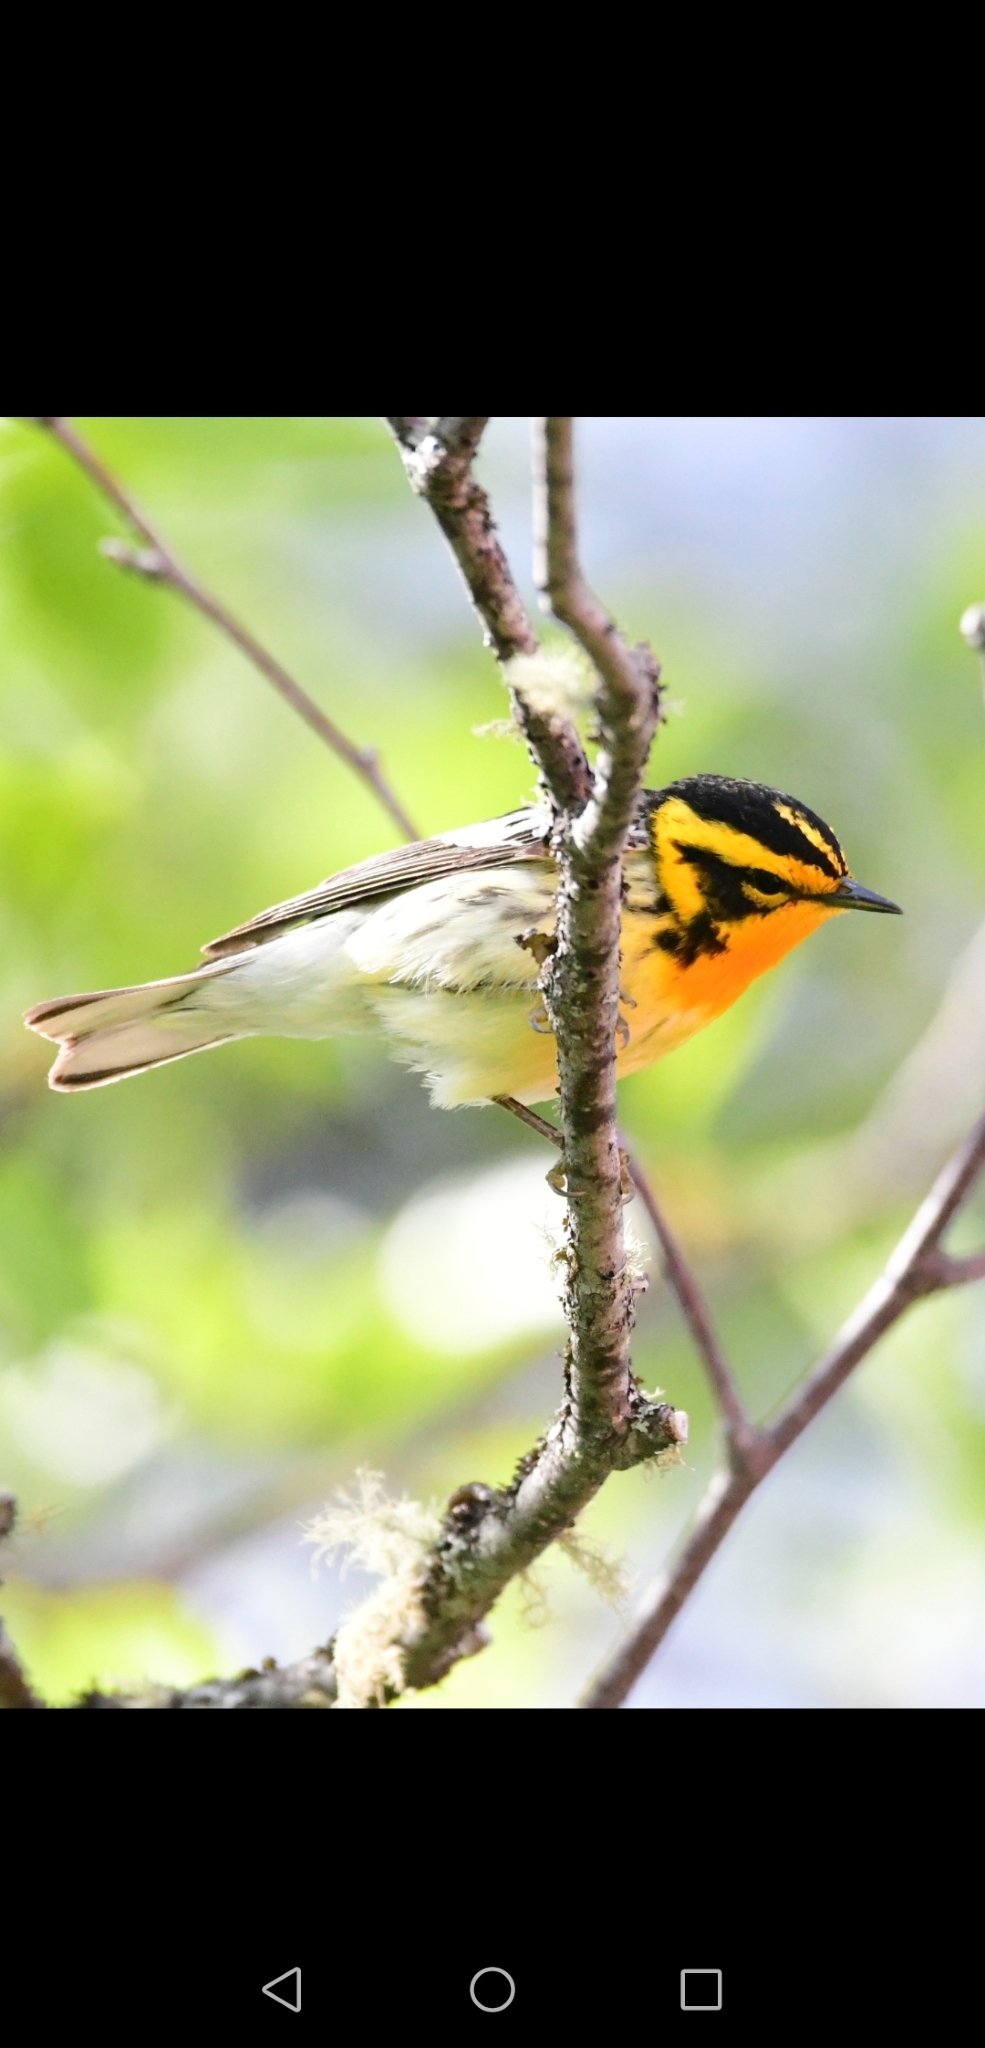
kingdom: Animalia
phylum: Chordata
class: Aves
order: Passeriformes
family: Parulidae
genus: Setophaga
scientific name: Setophaga fusca
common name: Blackburnian warbler
